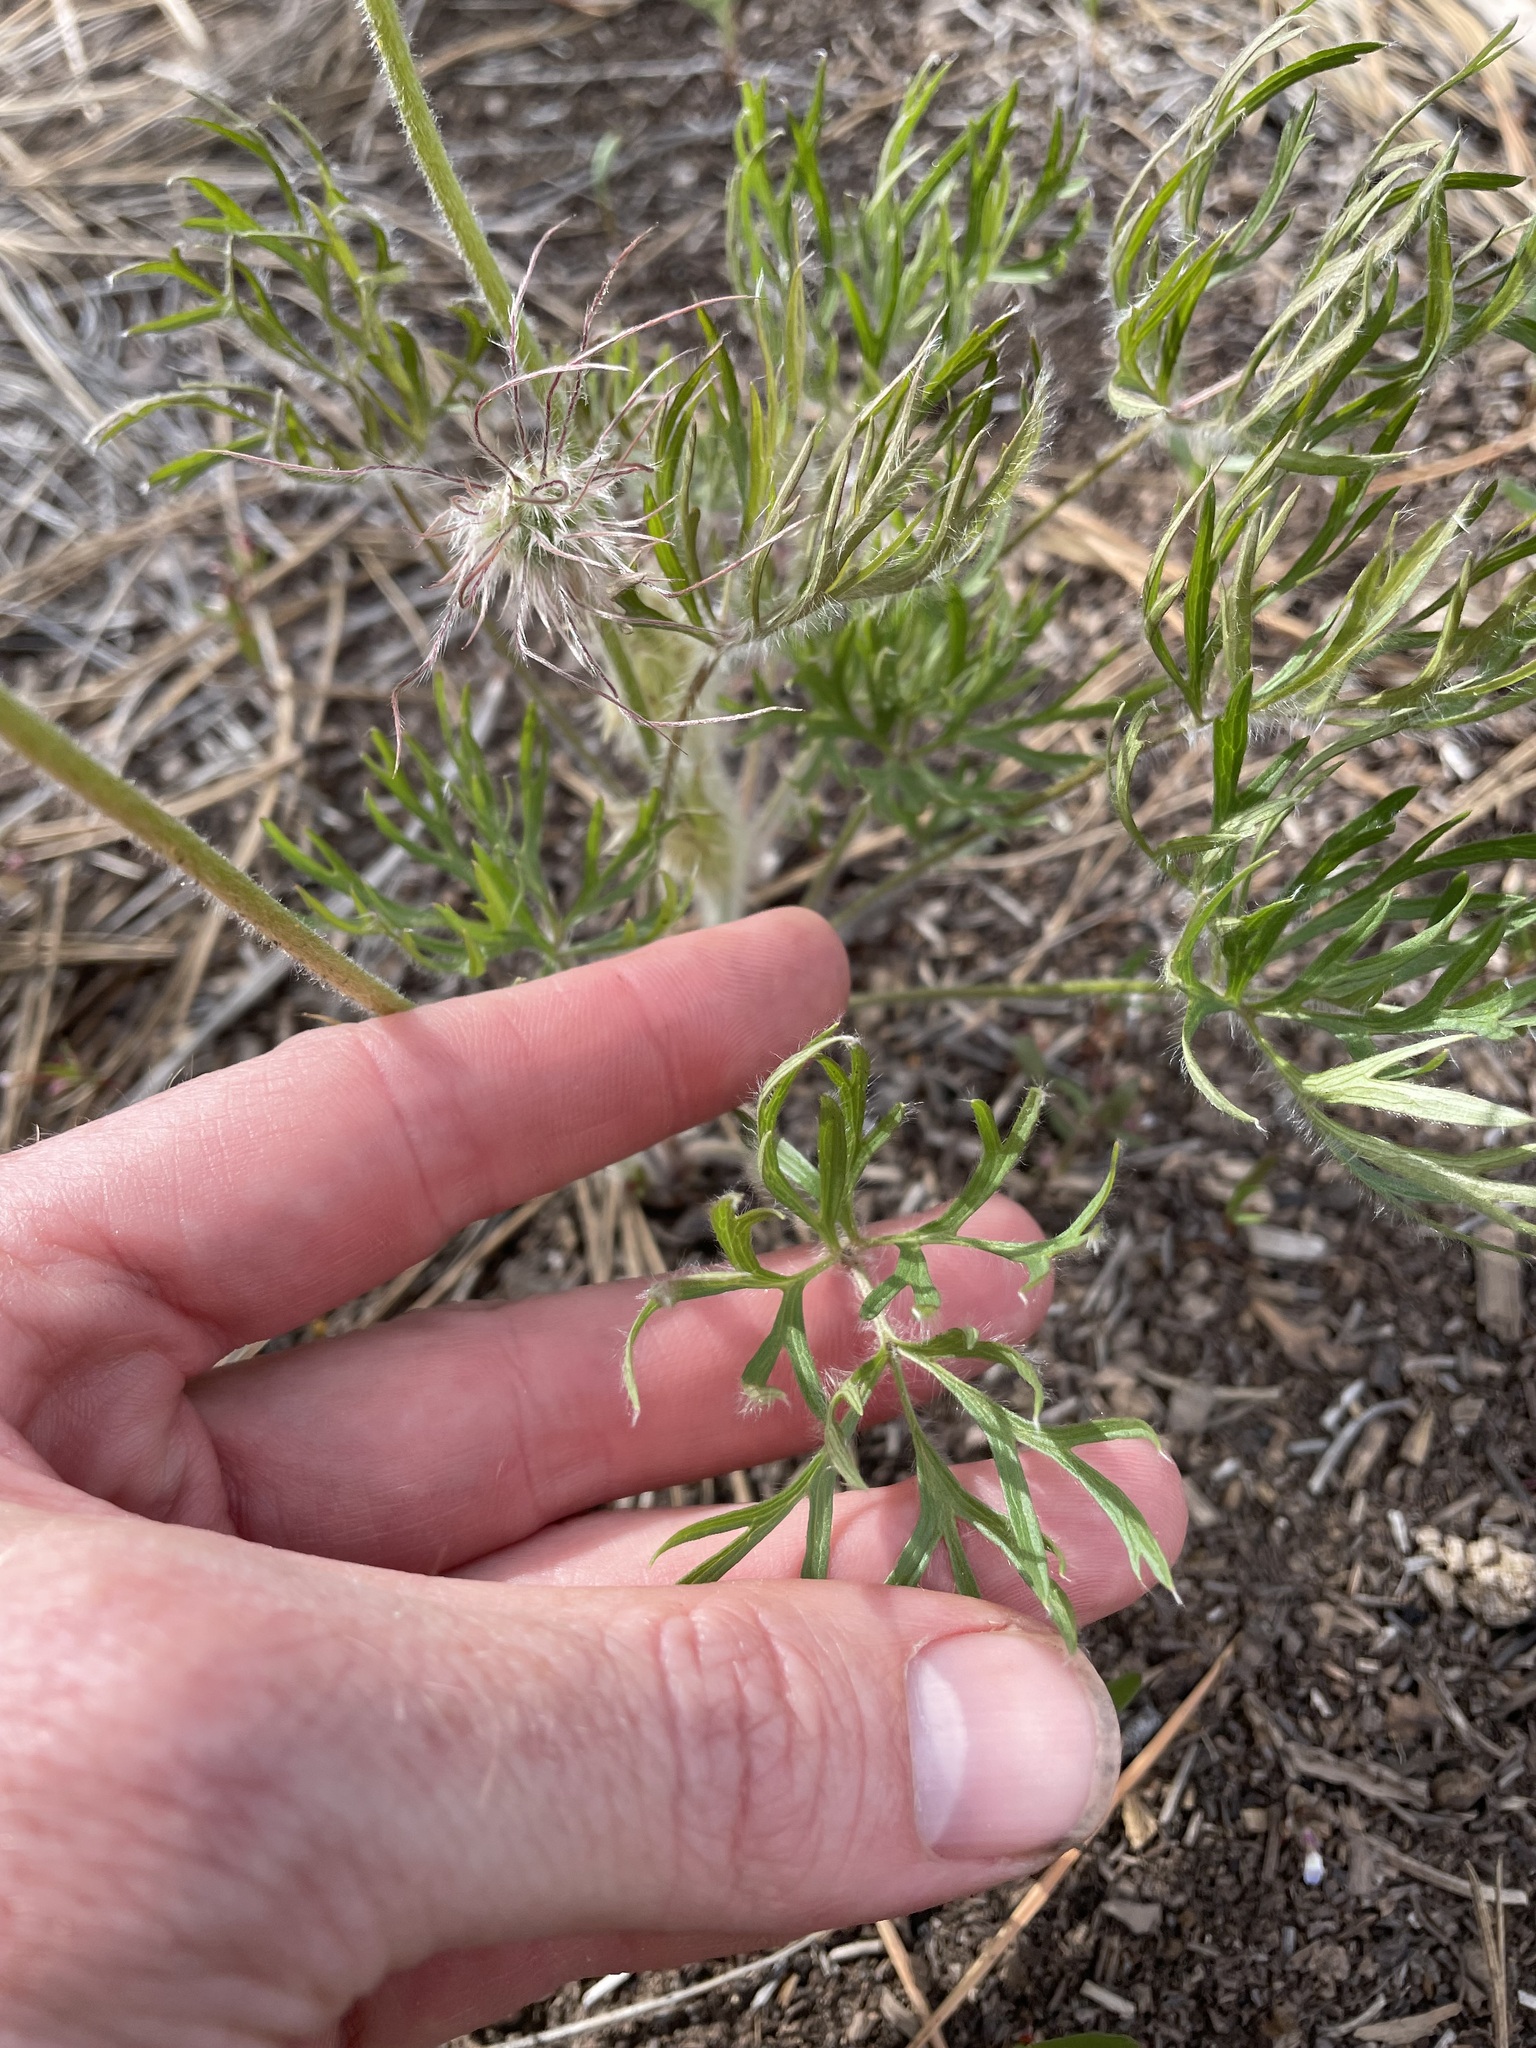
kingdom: Plantae
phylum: Tracheophyta
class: Magnoliopsida
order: Ranunculales
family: Ranunculaceae
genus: Pulsatilla
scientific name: Pulsatilla nuttalliana
